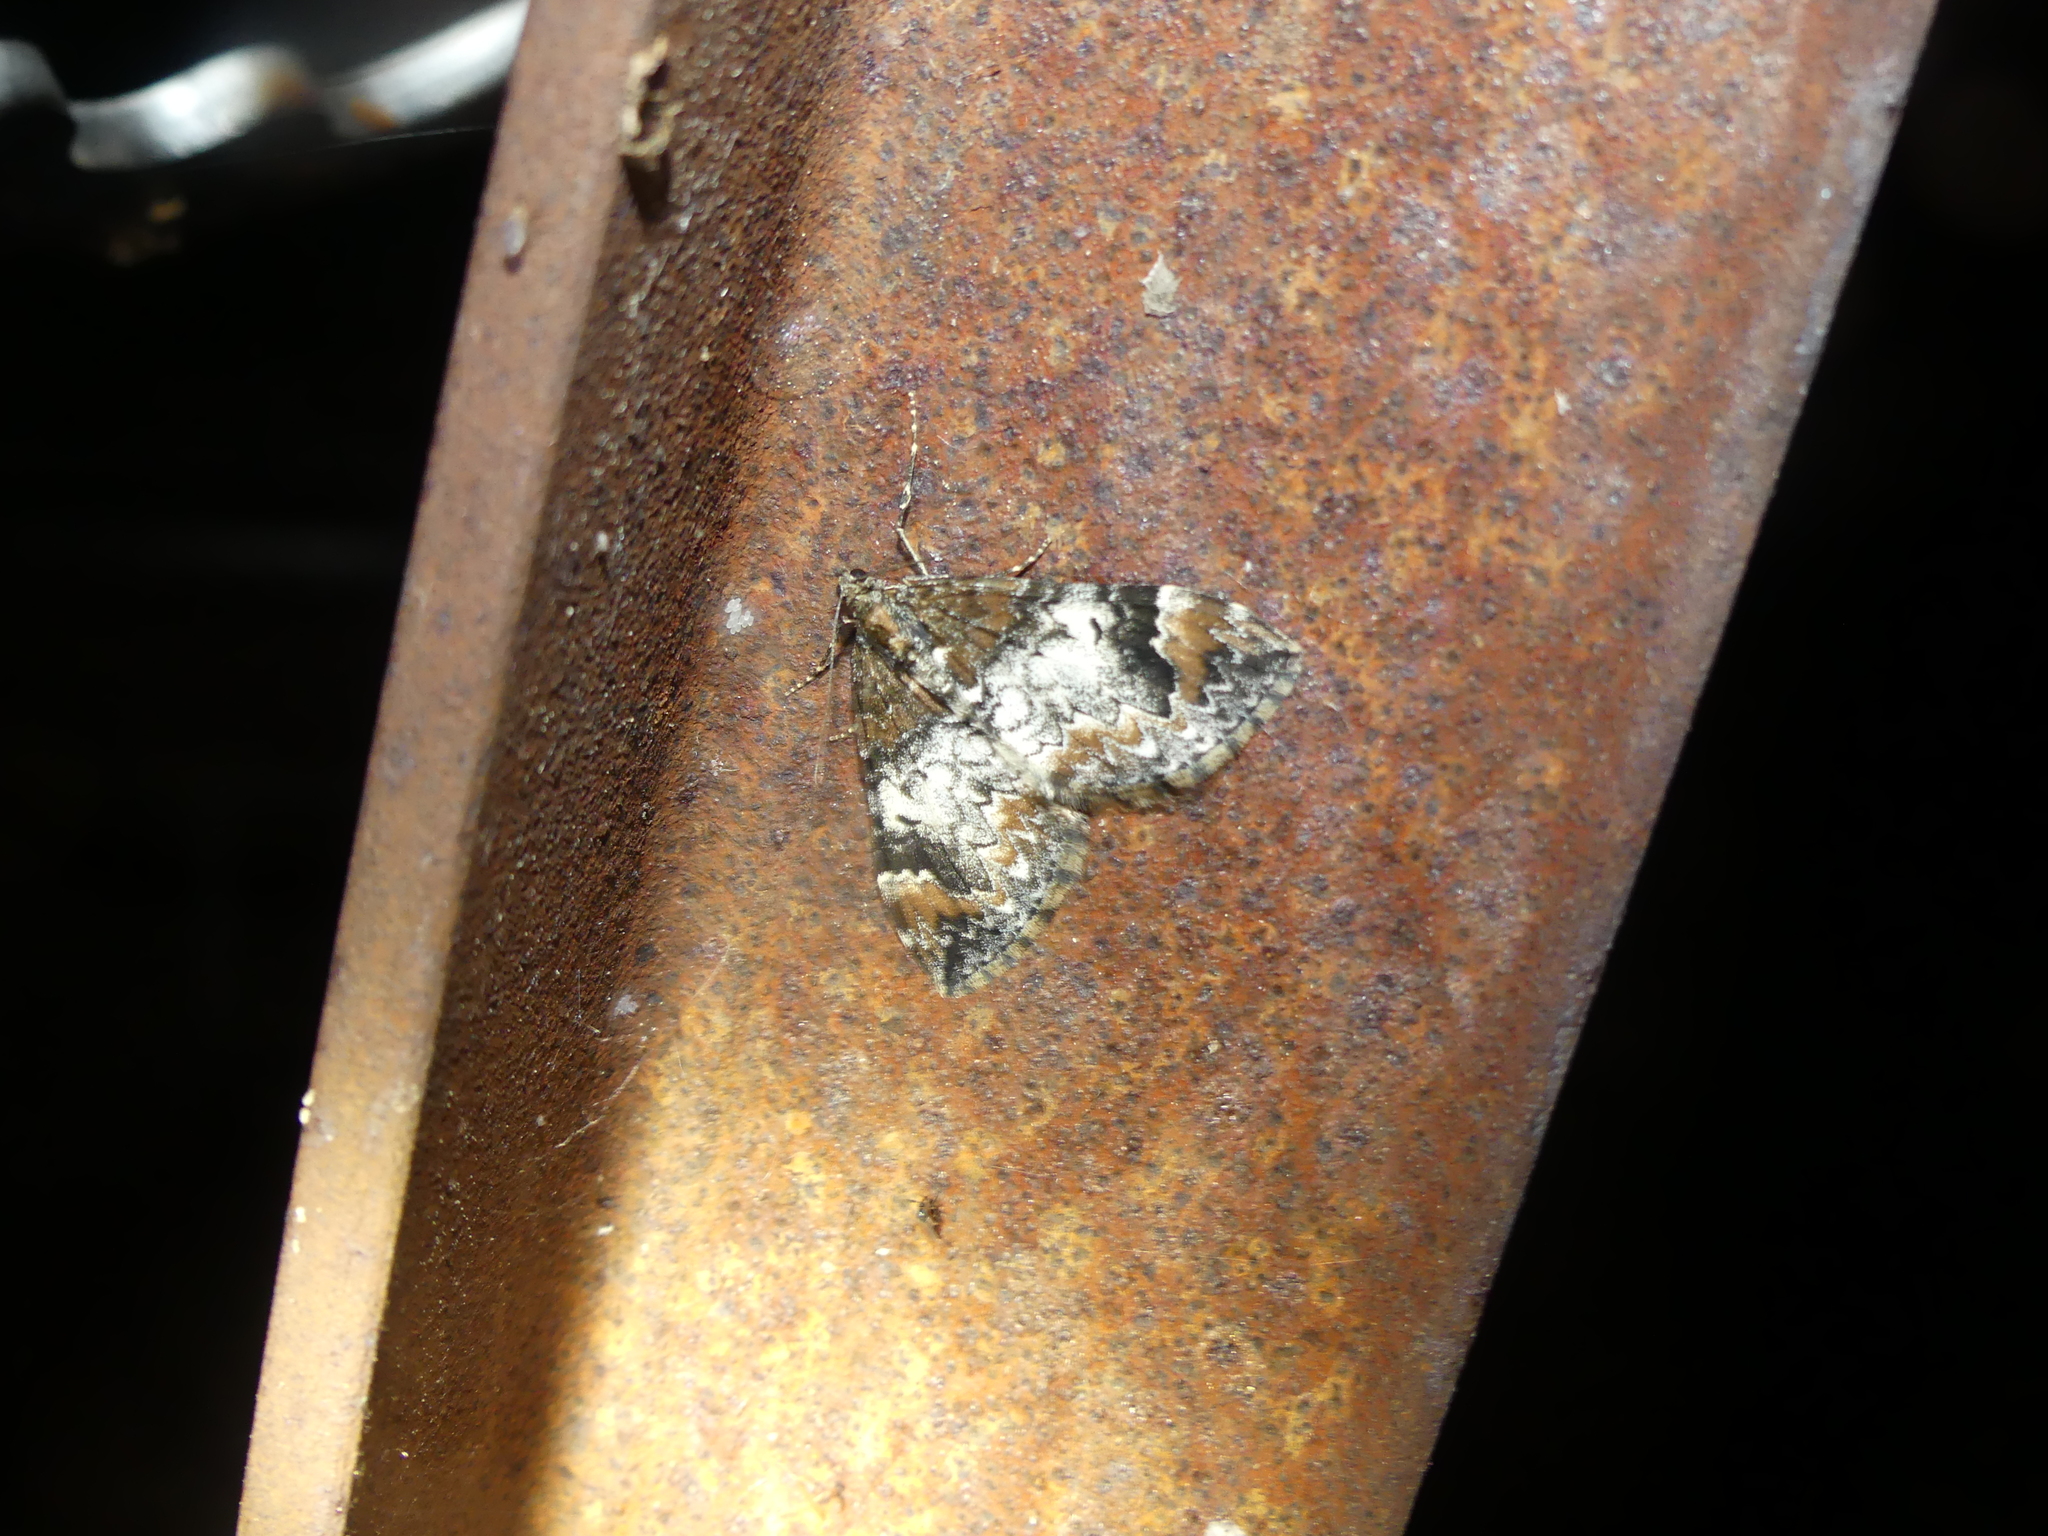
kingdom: Animalia
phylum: Arthropoda
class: Insecta
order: Lepidoptera
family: Geometridae
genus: Dysstroma
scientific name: Dysstroma truncata
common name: Common marbled carpet
